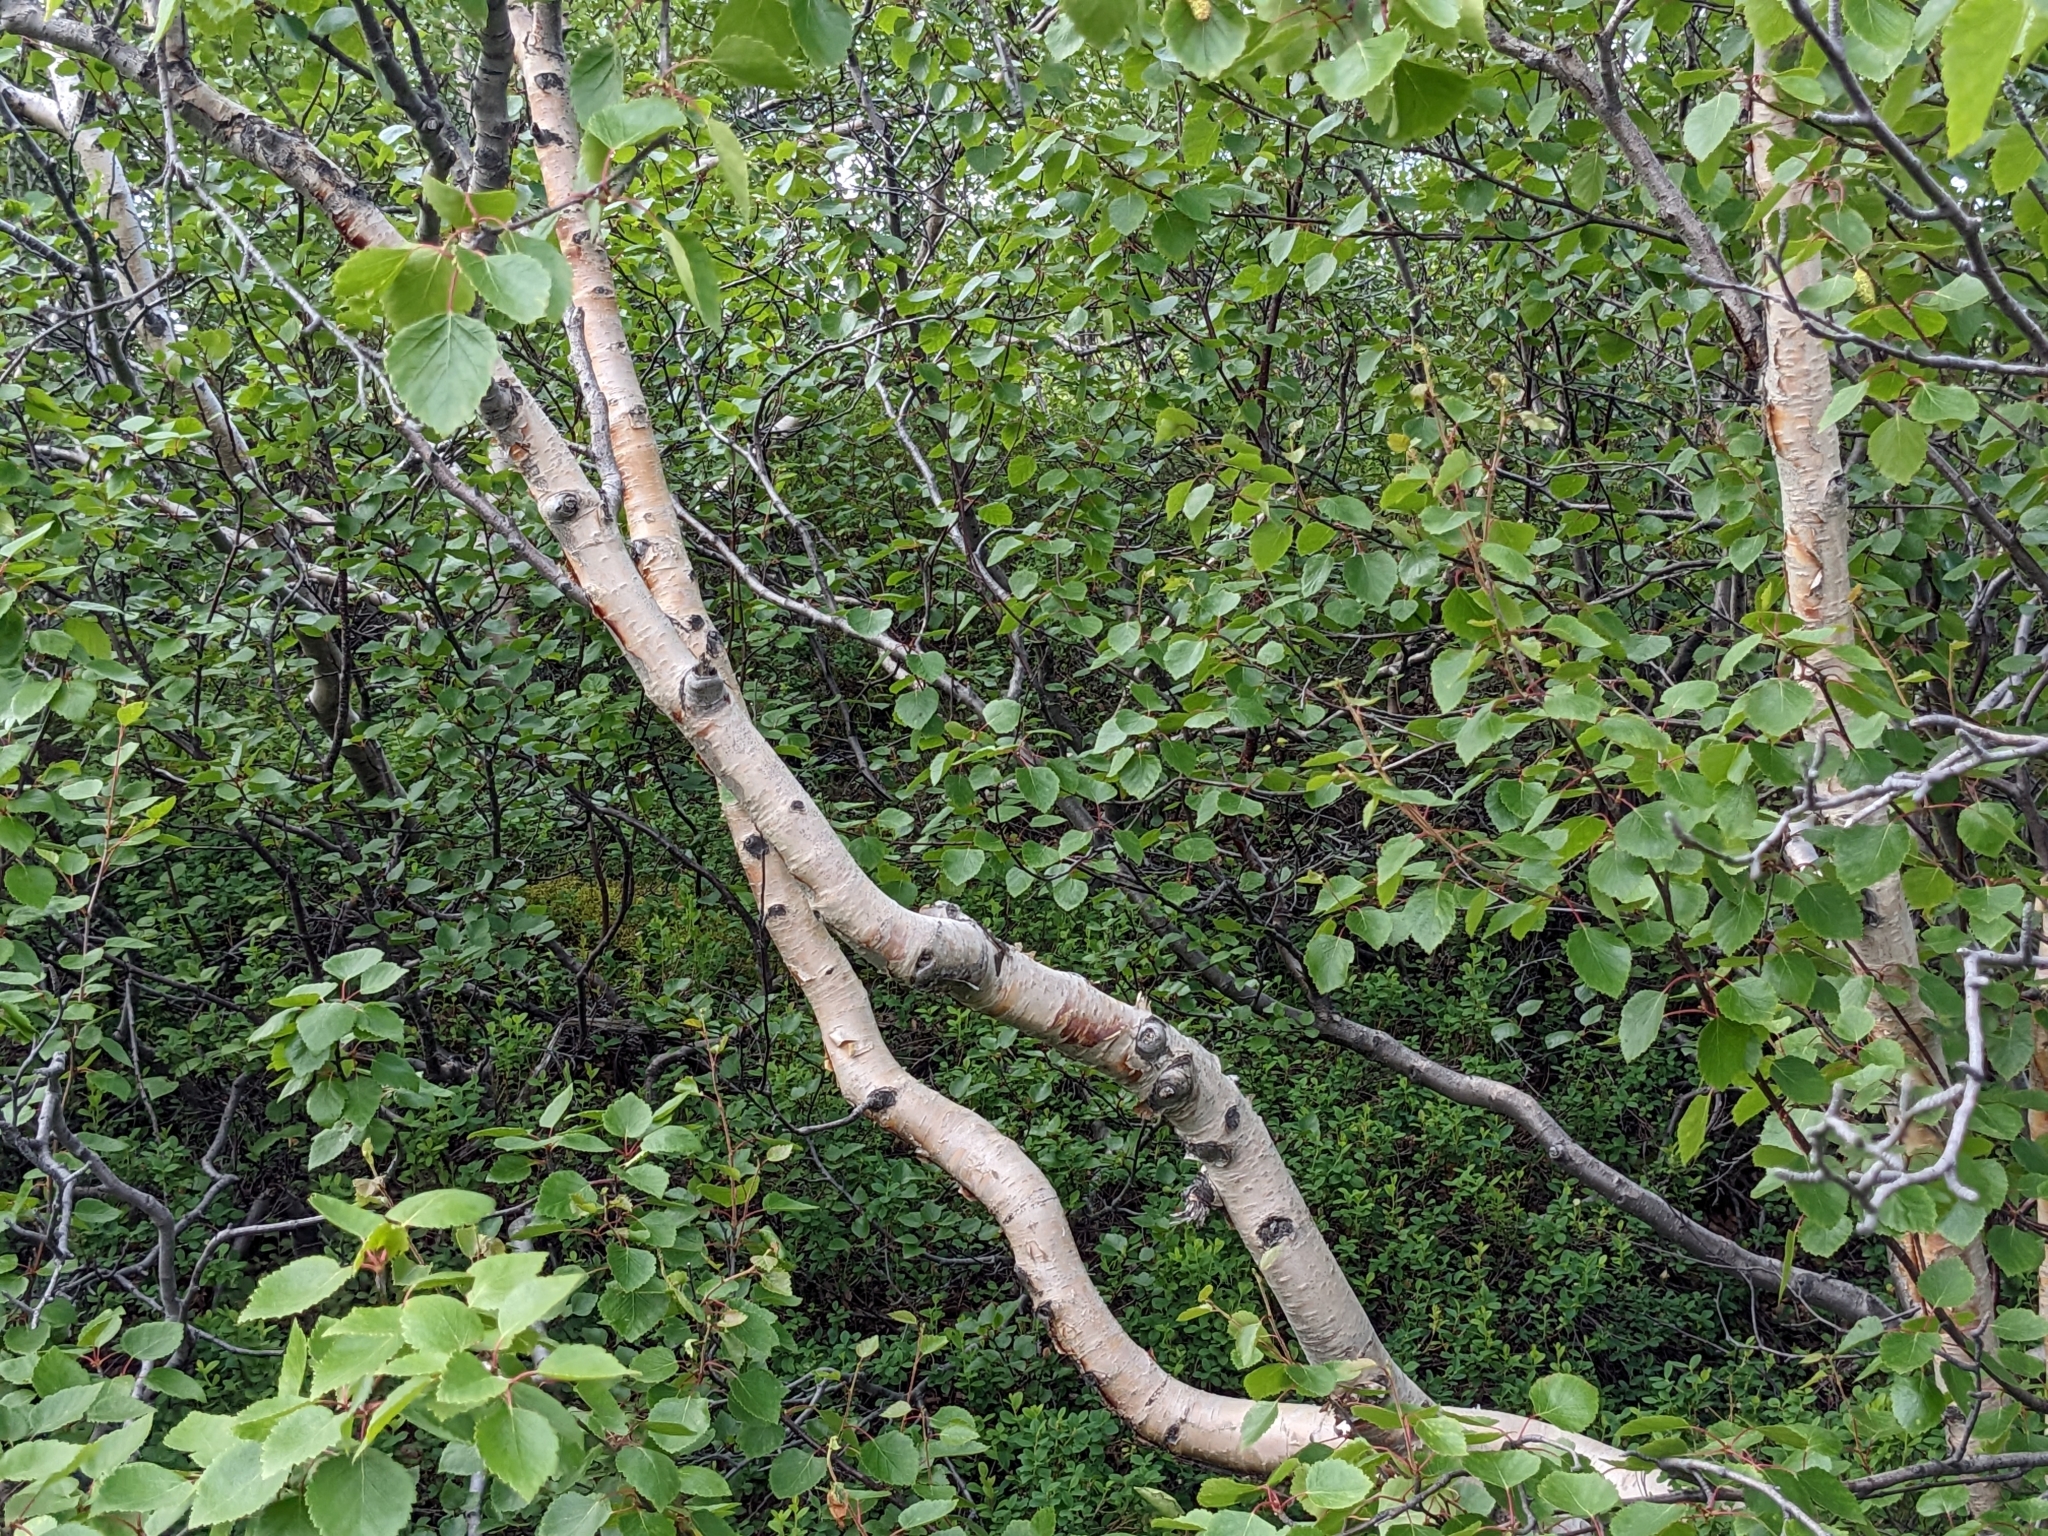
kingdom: Plantae
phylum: Tracheophyta
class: Magnoliopsida
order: Fagales
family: Betulaceae
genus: Betula
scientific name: Betula pubescens
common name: Downy birch
